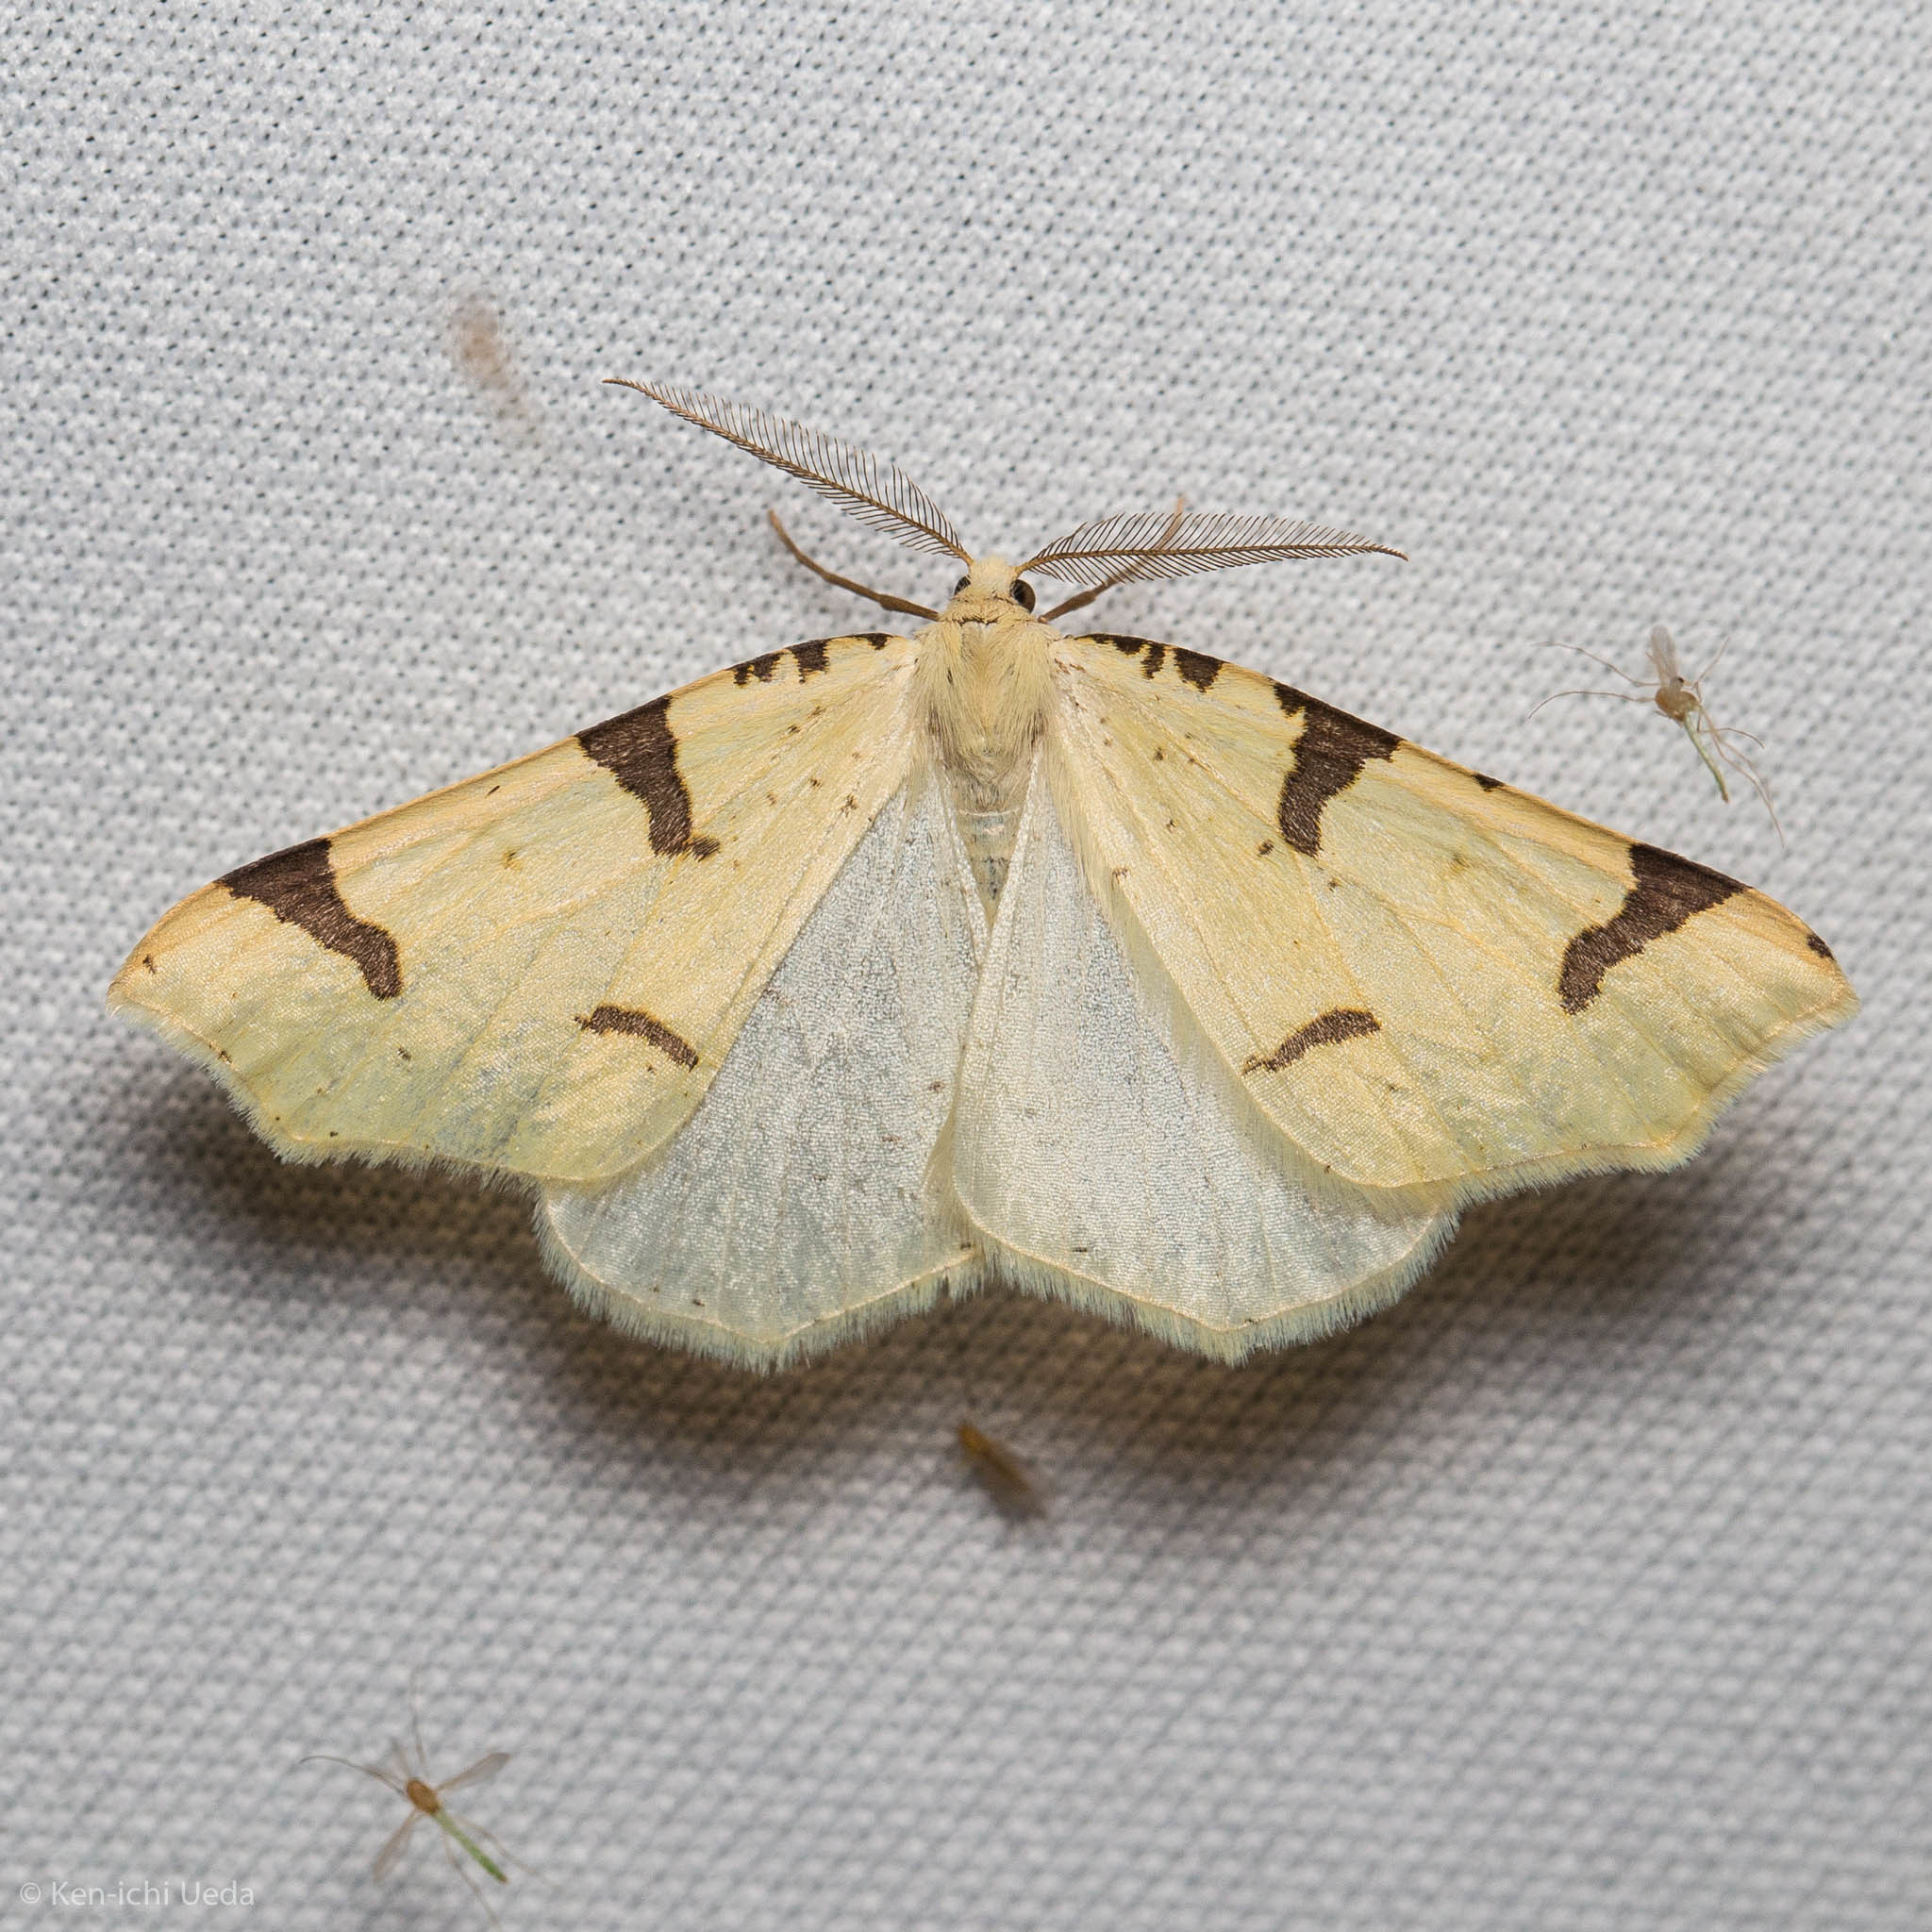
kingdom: Animalia
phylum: Arthropoda
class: Insecta
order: Lepidoptera
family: Geometridae
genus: Neoterpes
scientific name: Neoterpes trianguliferata
